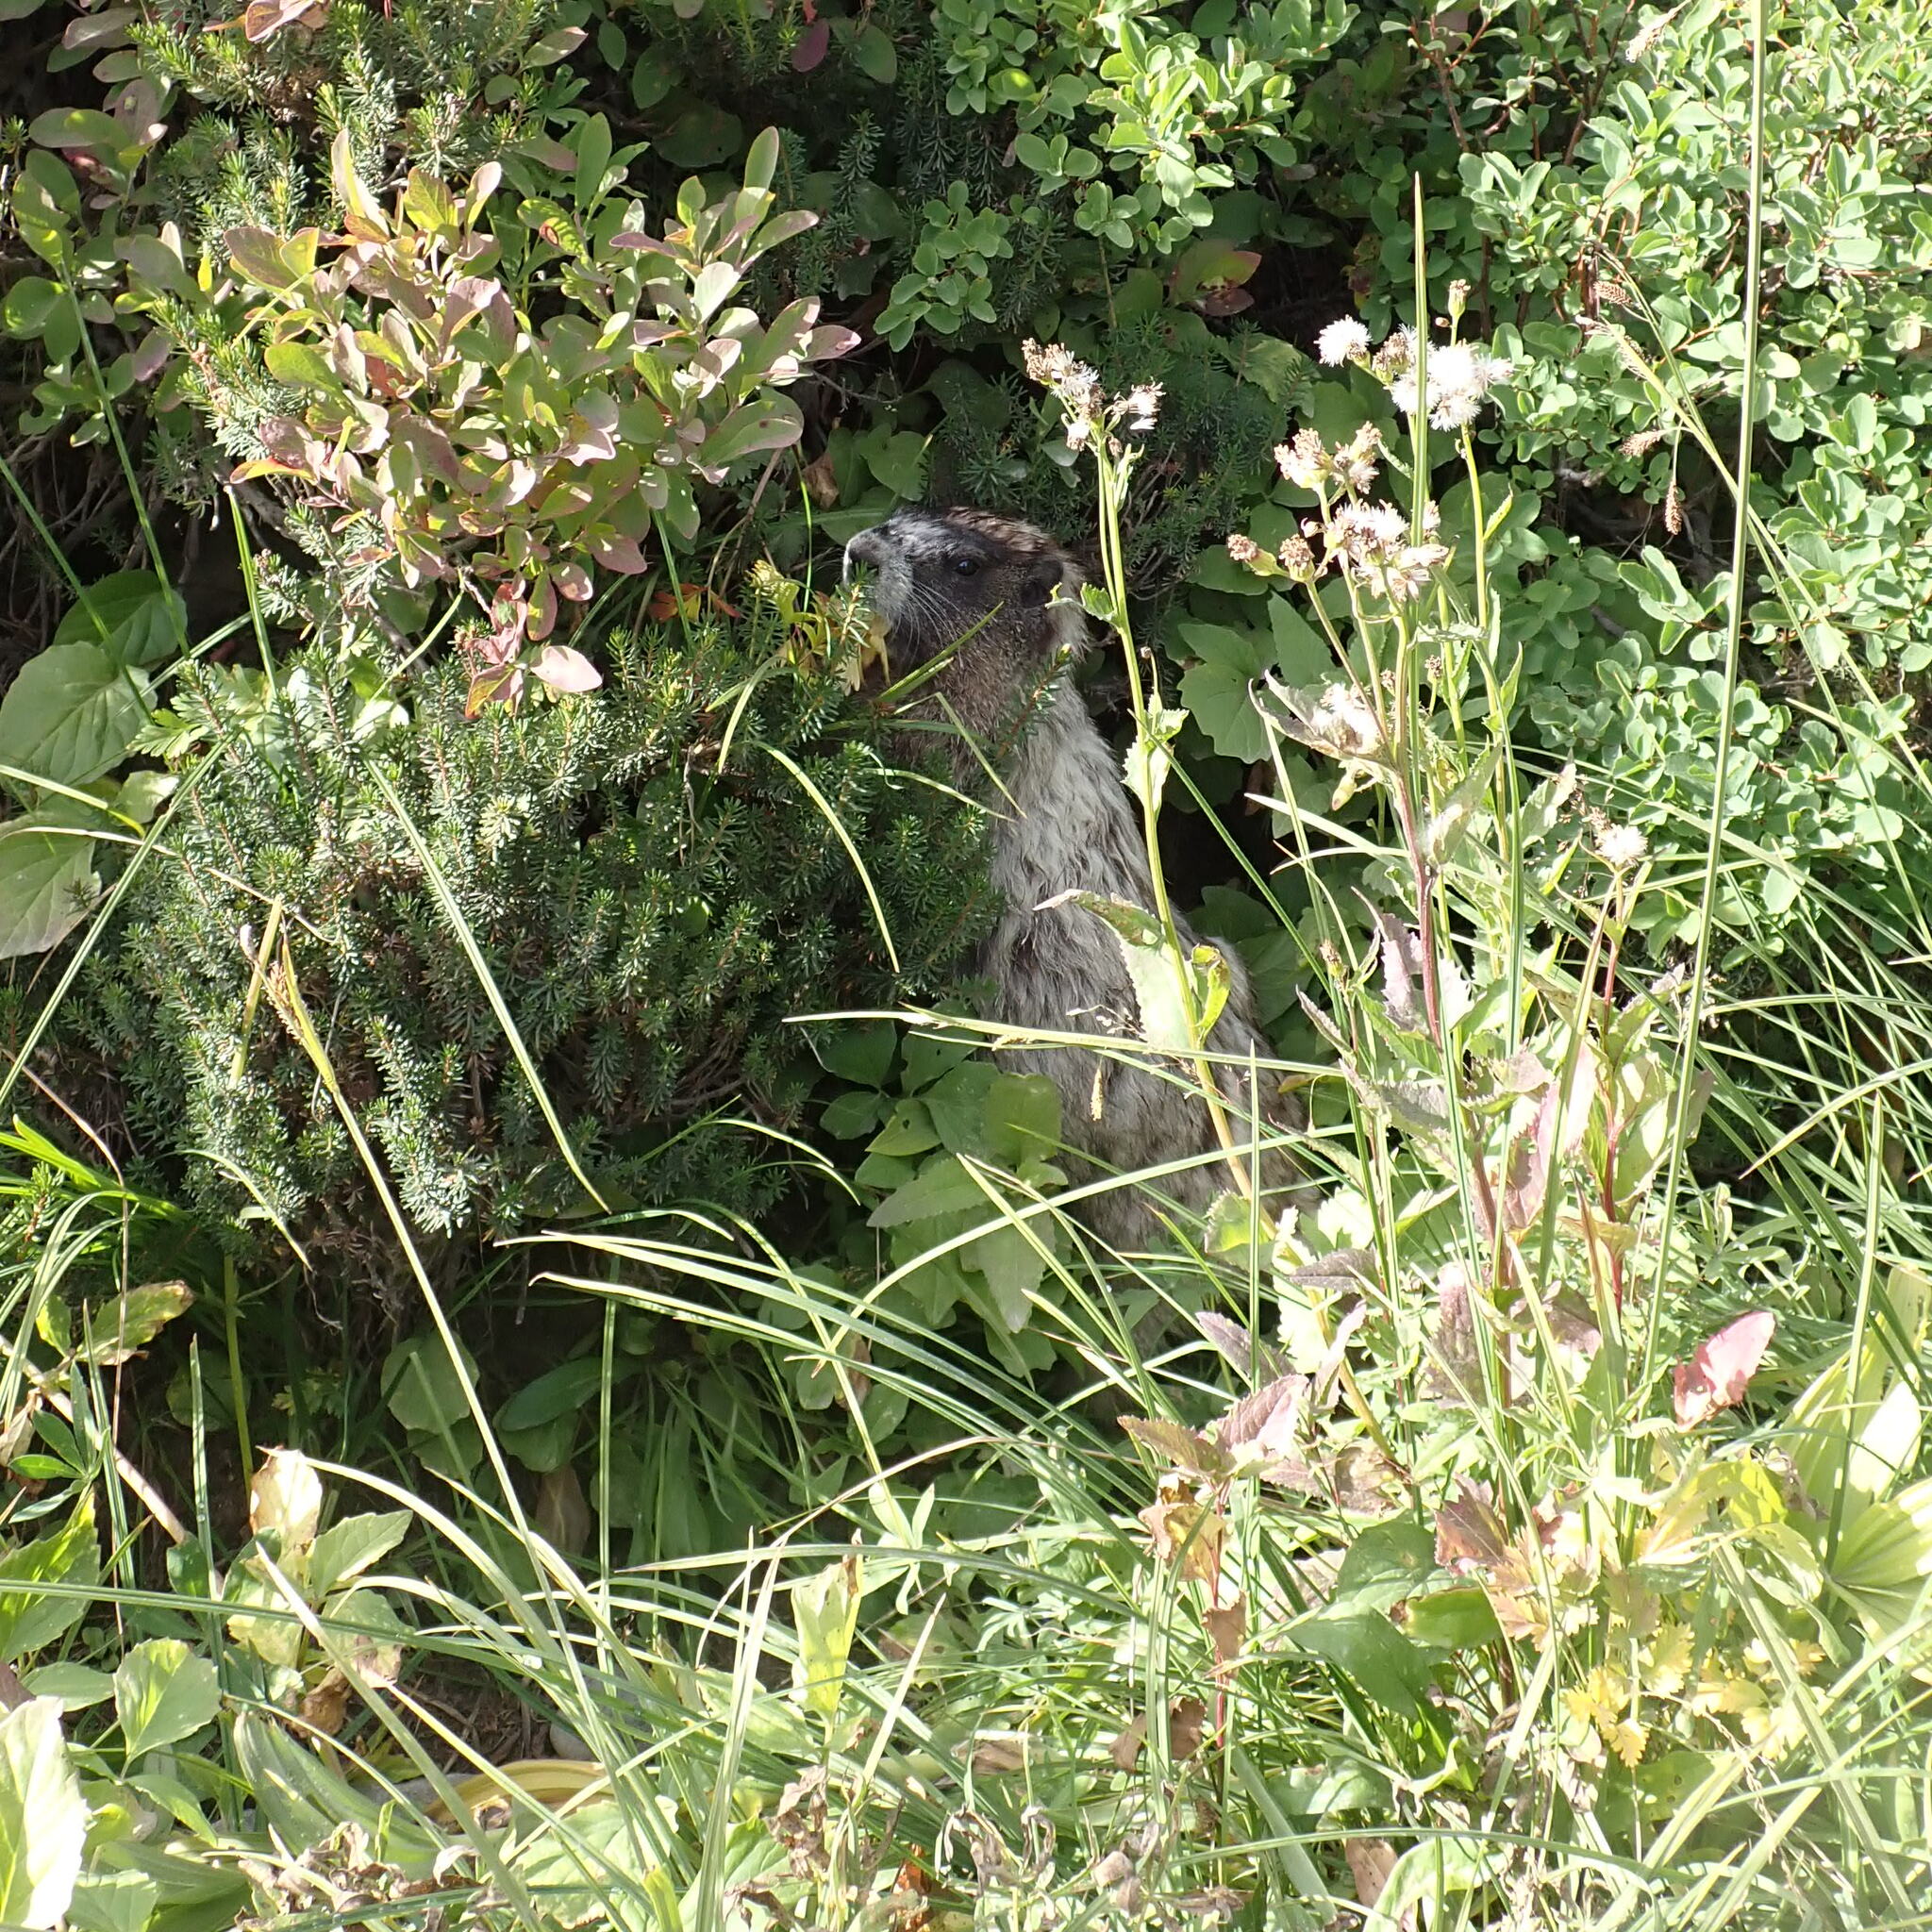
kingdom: Animalia
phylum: Chordata
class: Mammalia
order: Rodentia
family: Sciuridae
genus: Marmota
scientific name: Marmota caligata
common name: Hoary marmot
